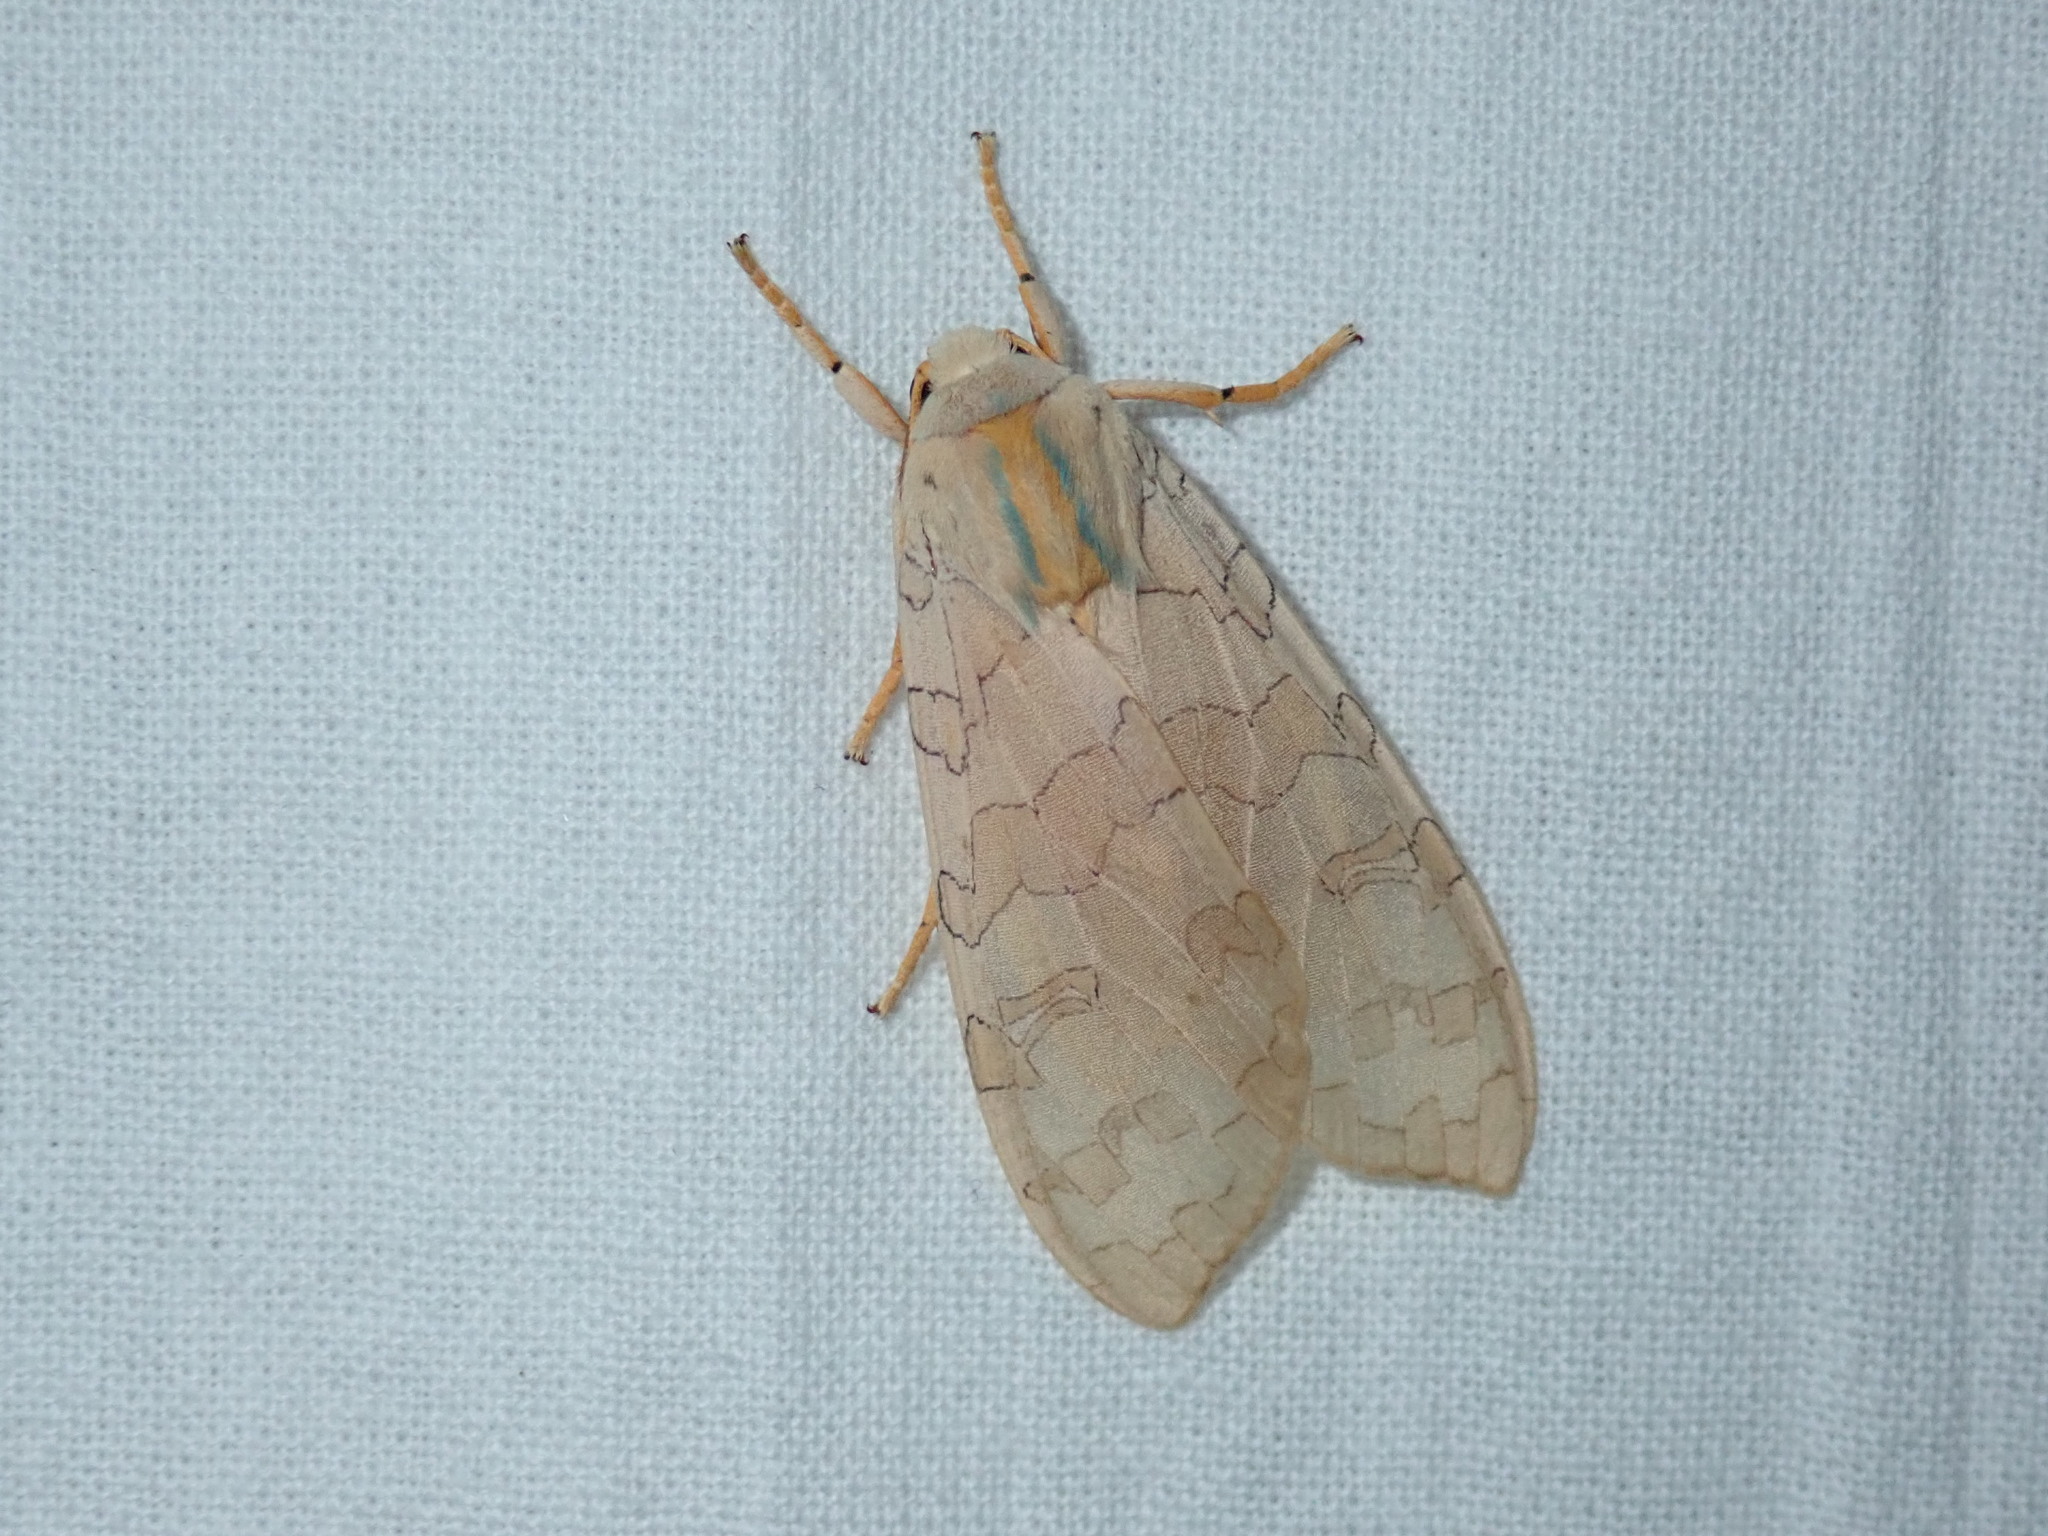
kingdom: Animalia
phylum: Arthropoda
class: Insecta
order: Lepidoptera
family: Erebidae
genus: Halysidota
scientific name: Halysidota
